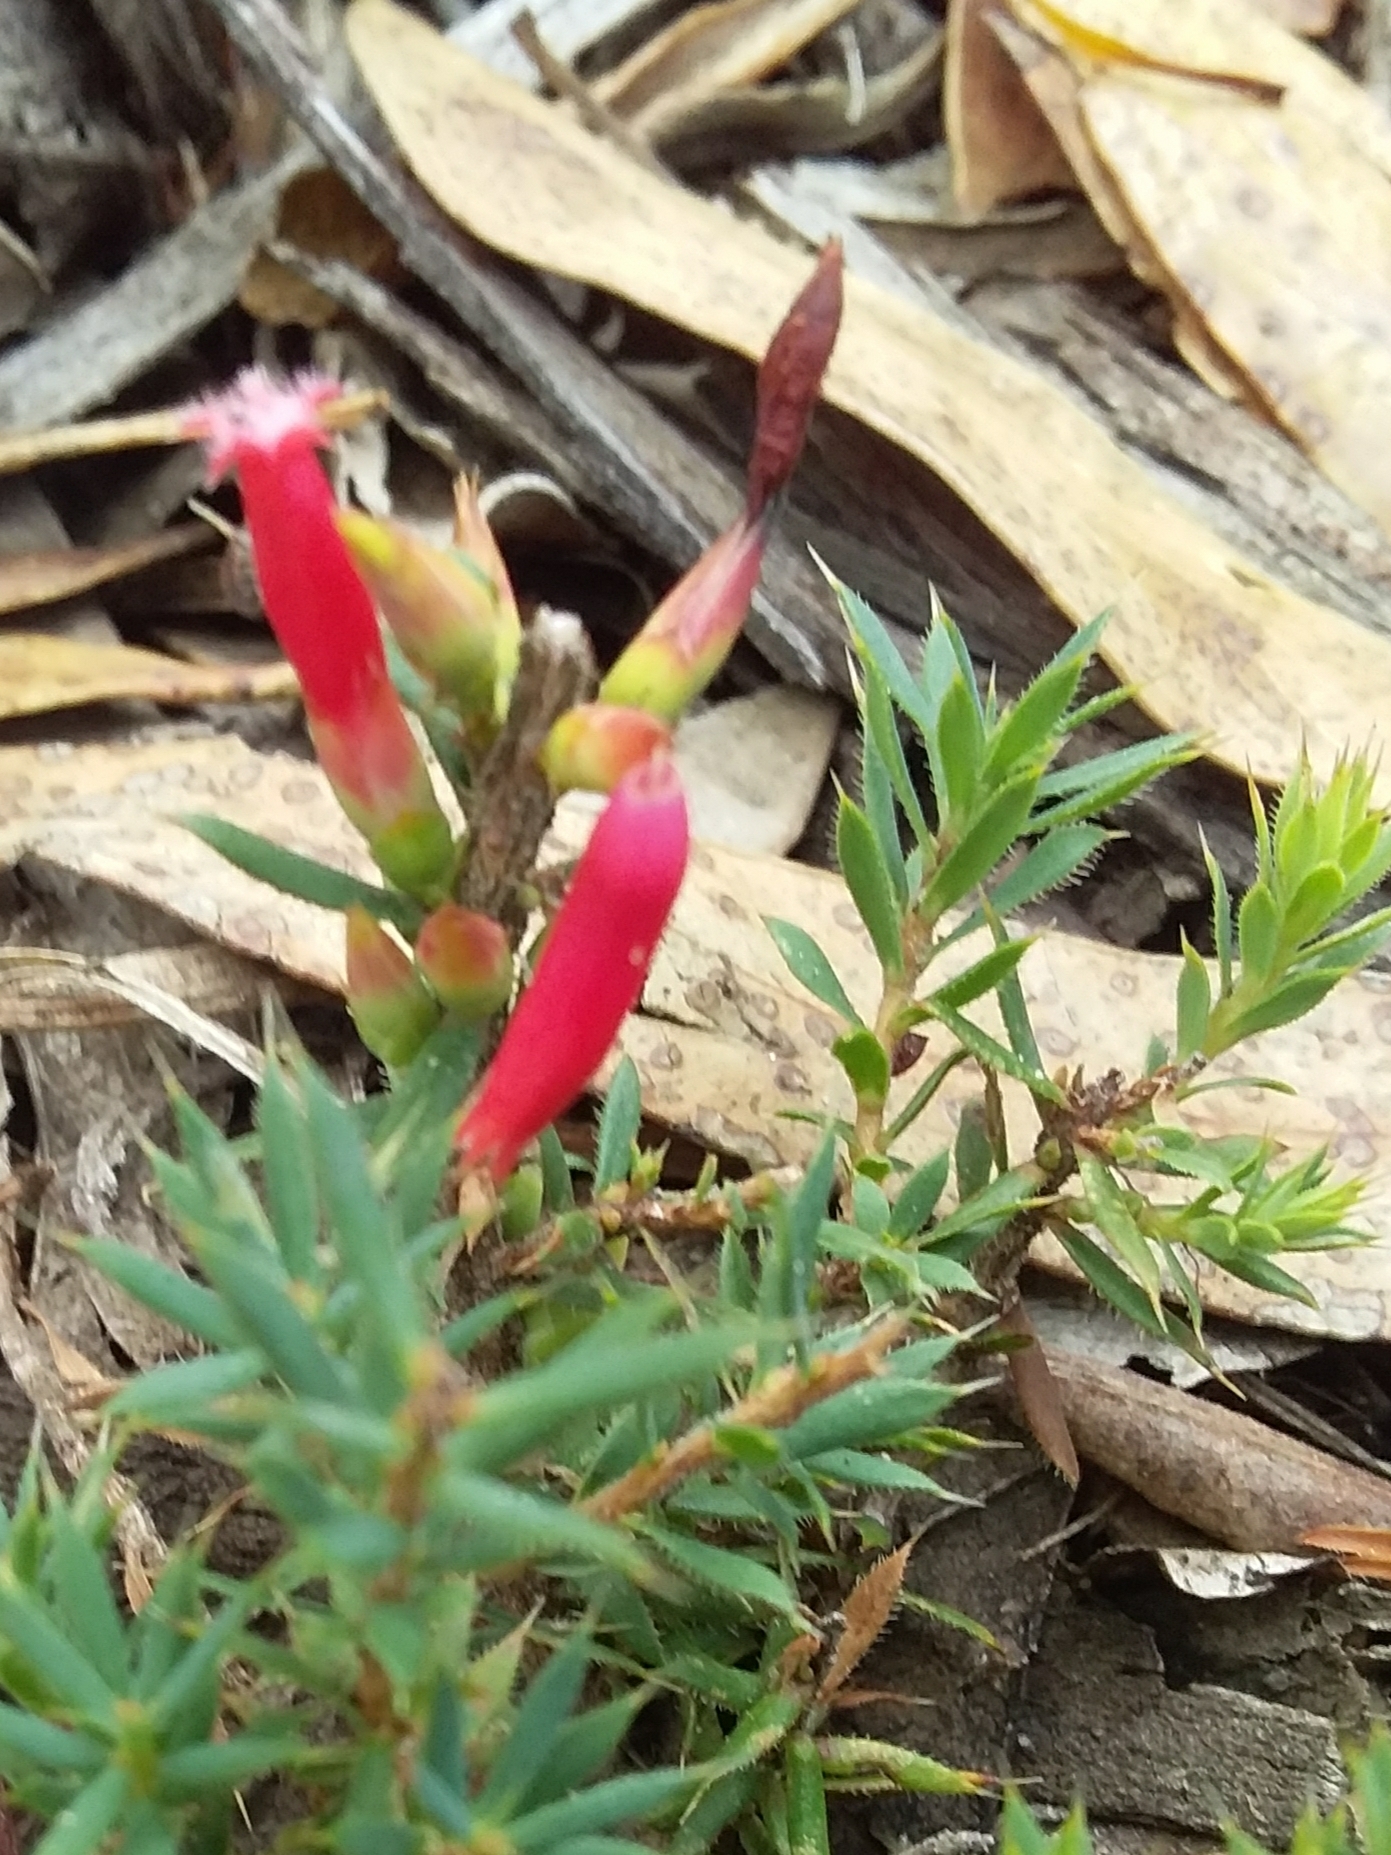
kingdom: Plantae
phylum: Tracheophyta
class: Magnoliopsida
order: Ericales
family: Ericaceae
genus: Styphelia
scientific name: Styphelia humifusa
